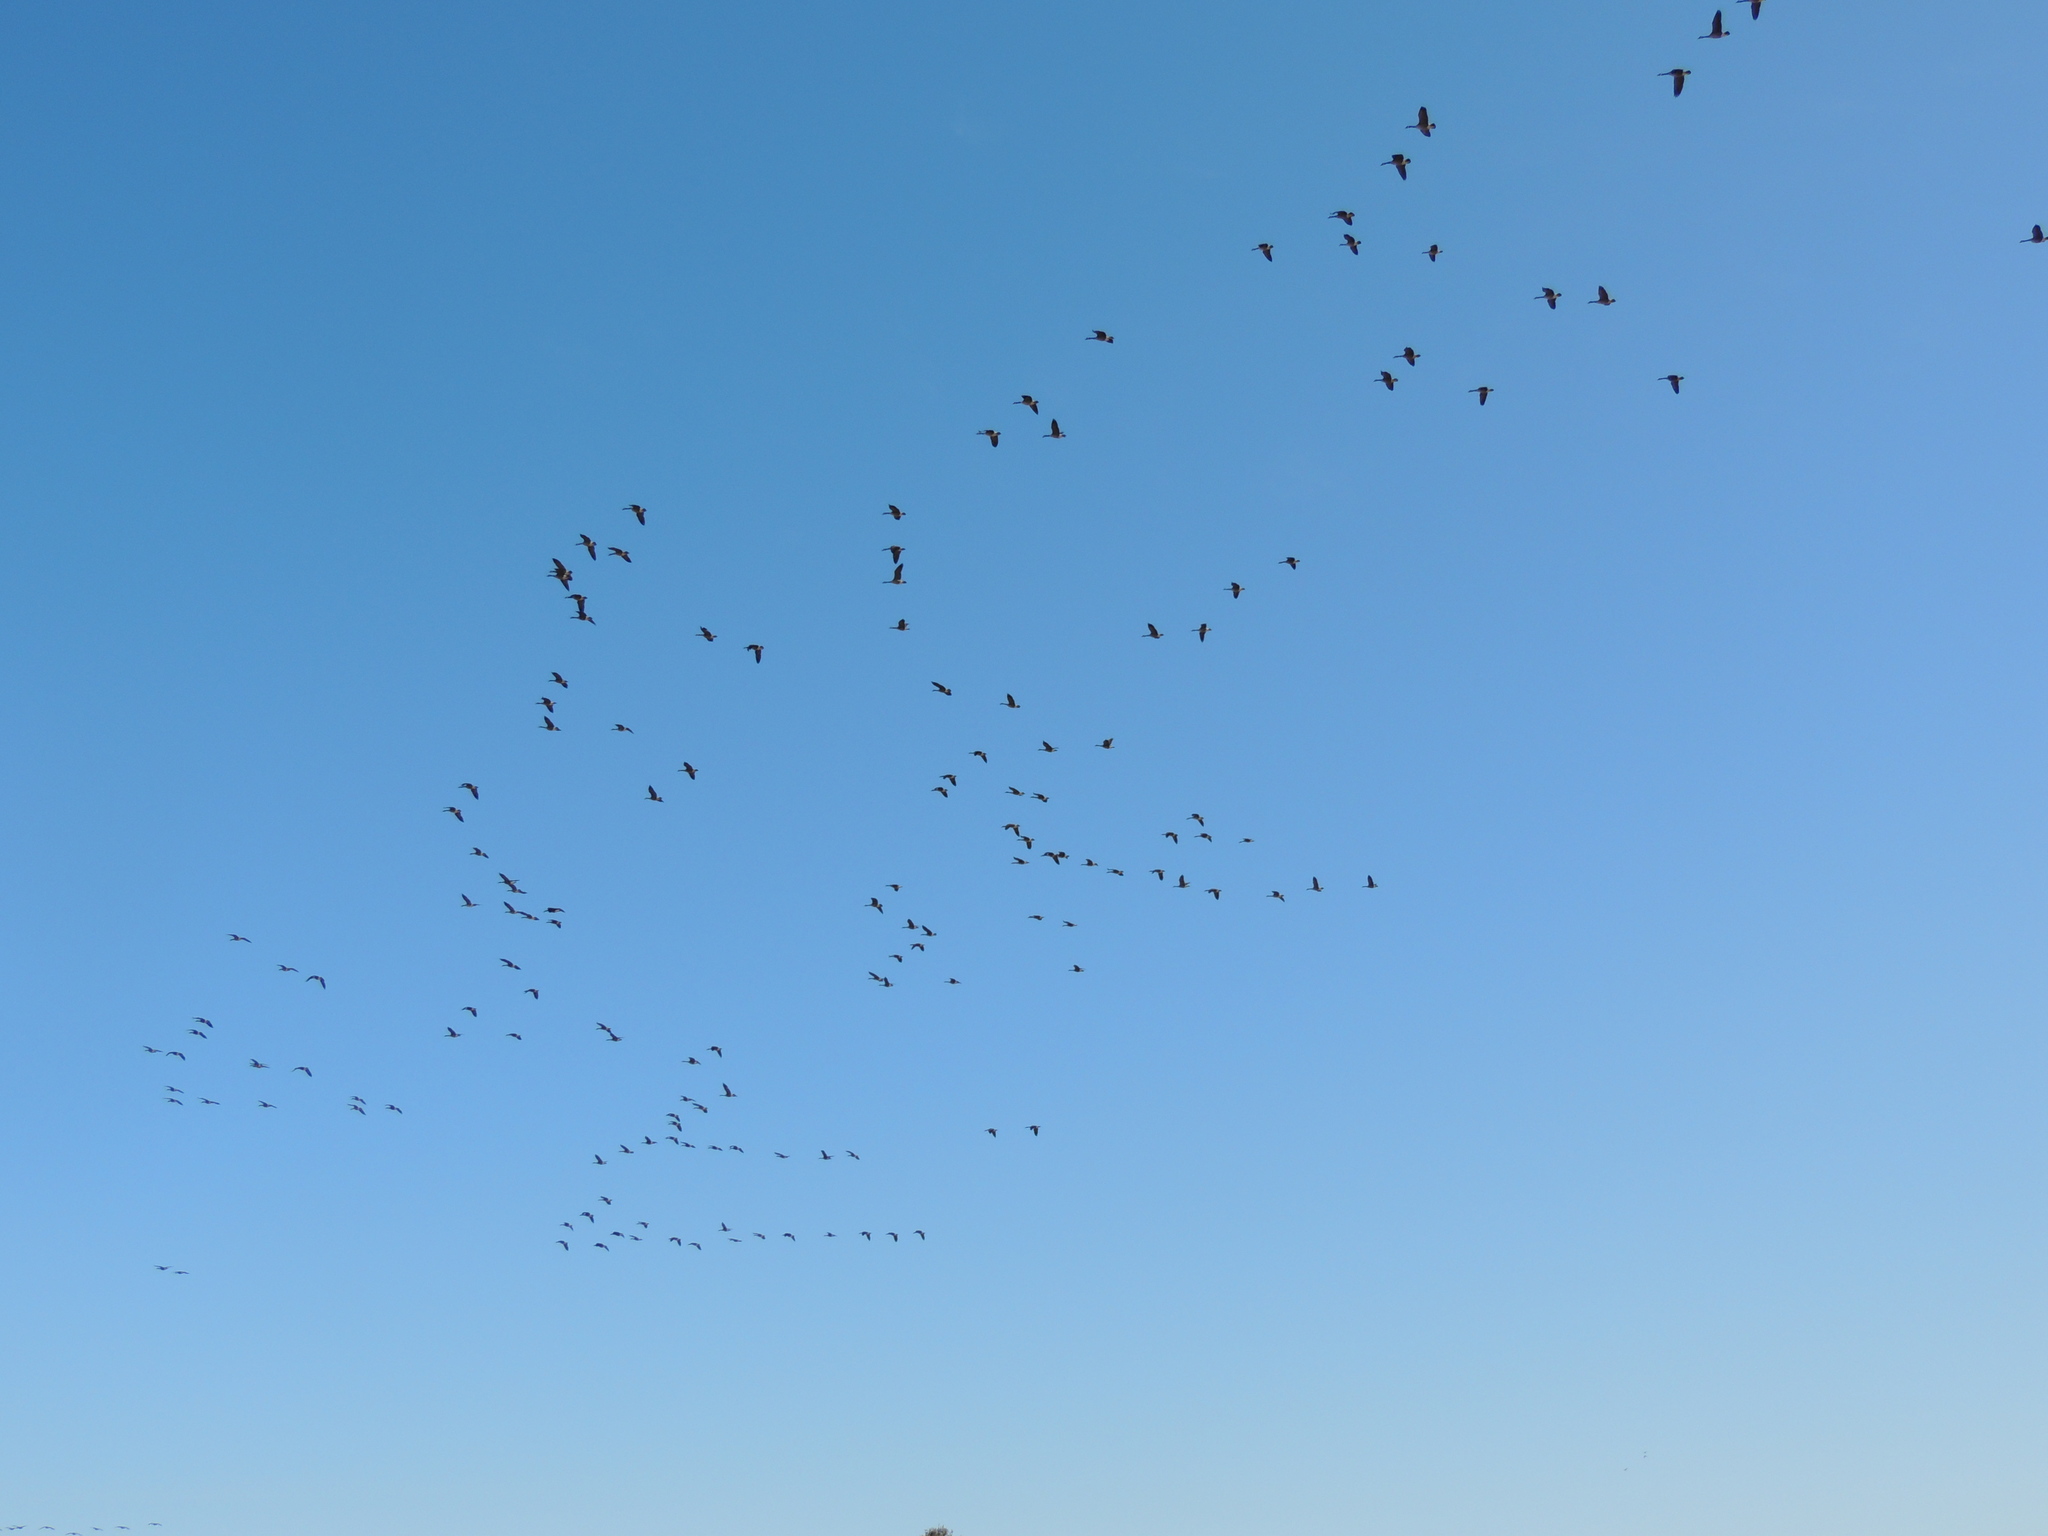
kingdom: Animalia
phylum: Chordata
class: Aves
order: Anseriformes
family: Anatidae
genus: Branta
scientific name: Branta canadensis
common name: Canada goose
